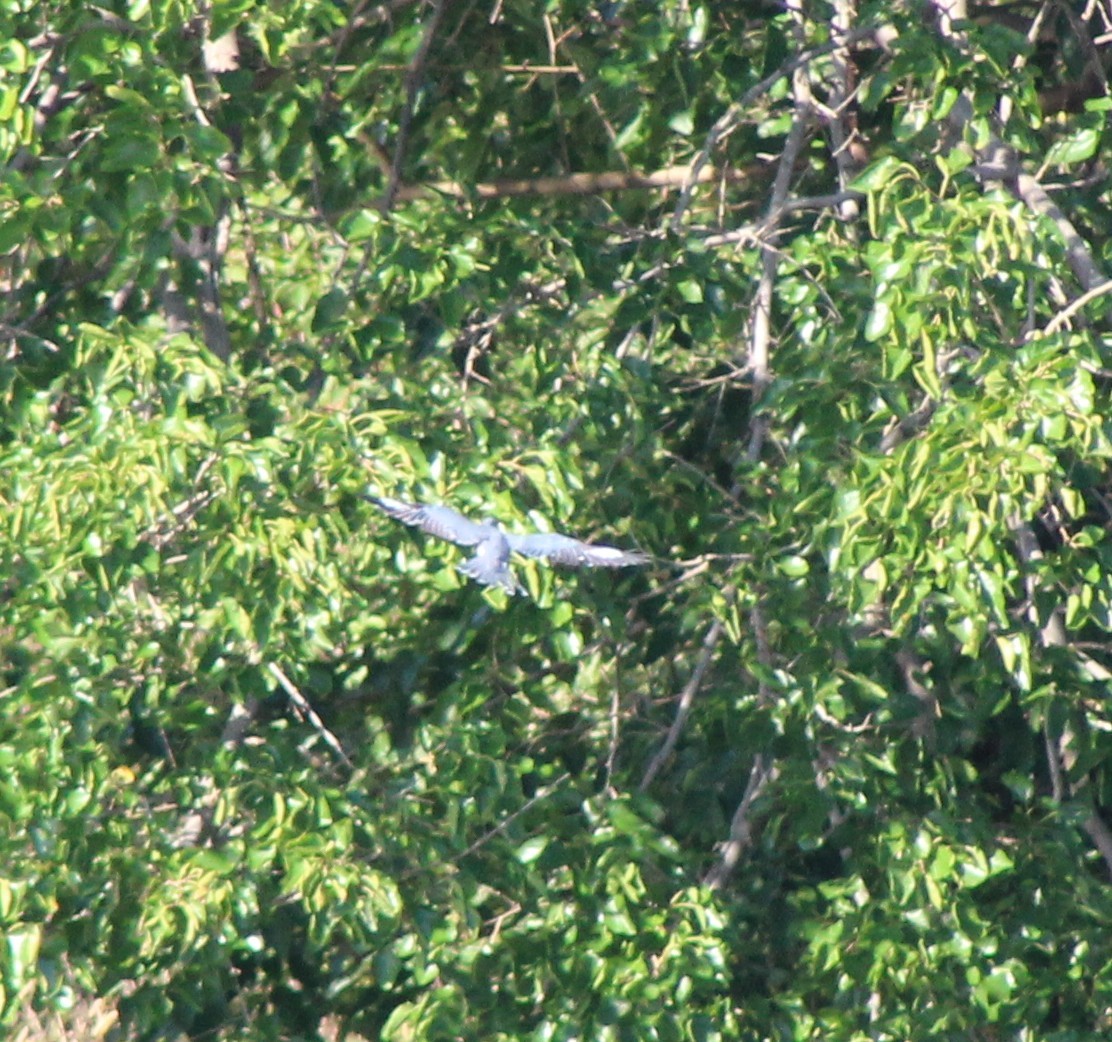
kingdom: Animalia
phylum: Chordata
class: Aves
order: Coraciiformes
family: Alcedinidae
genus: Megaceryle
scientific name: Megaceryle alcyon
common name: Belted kingfisher
